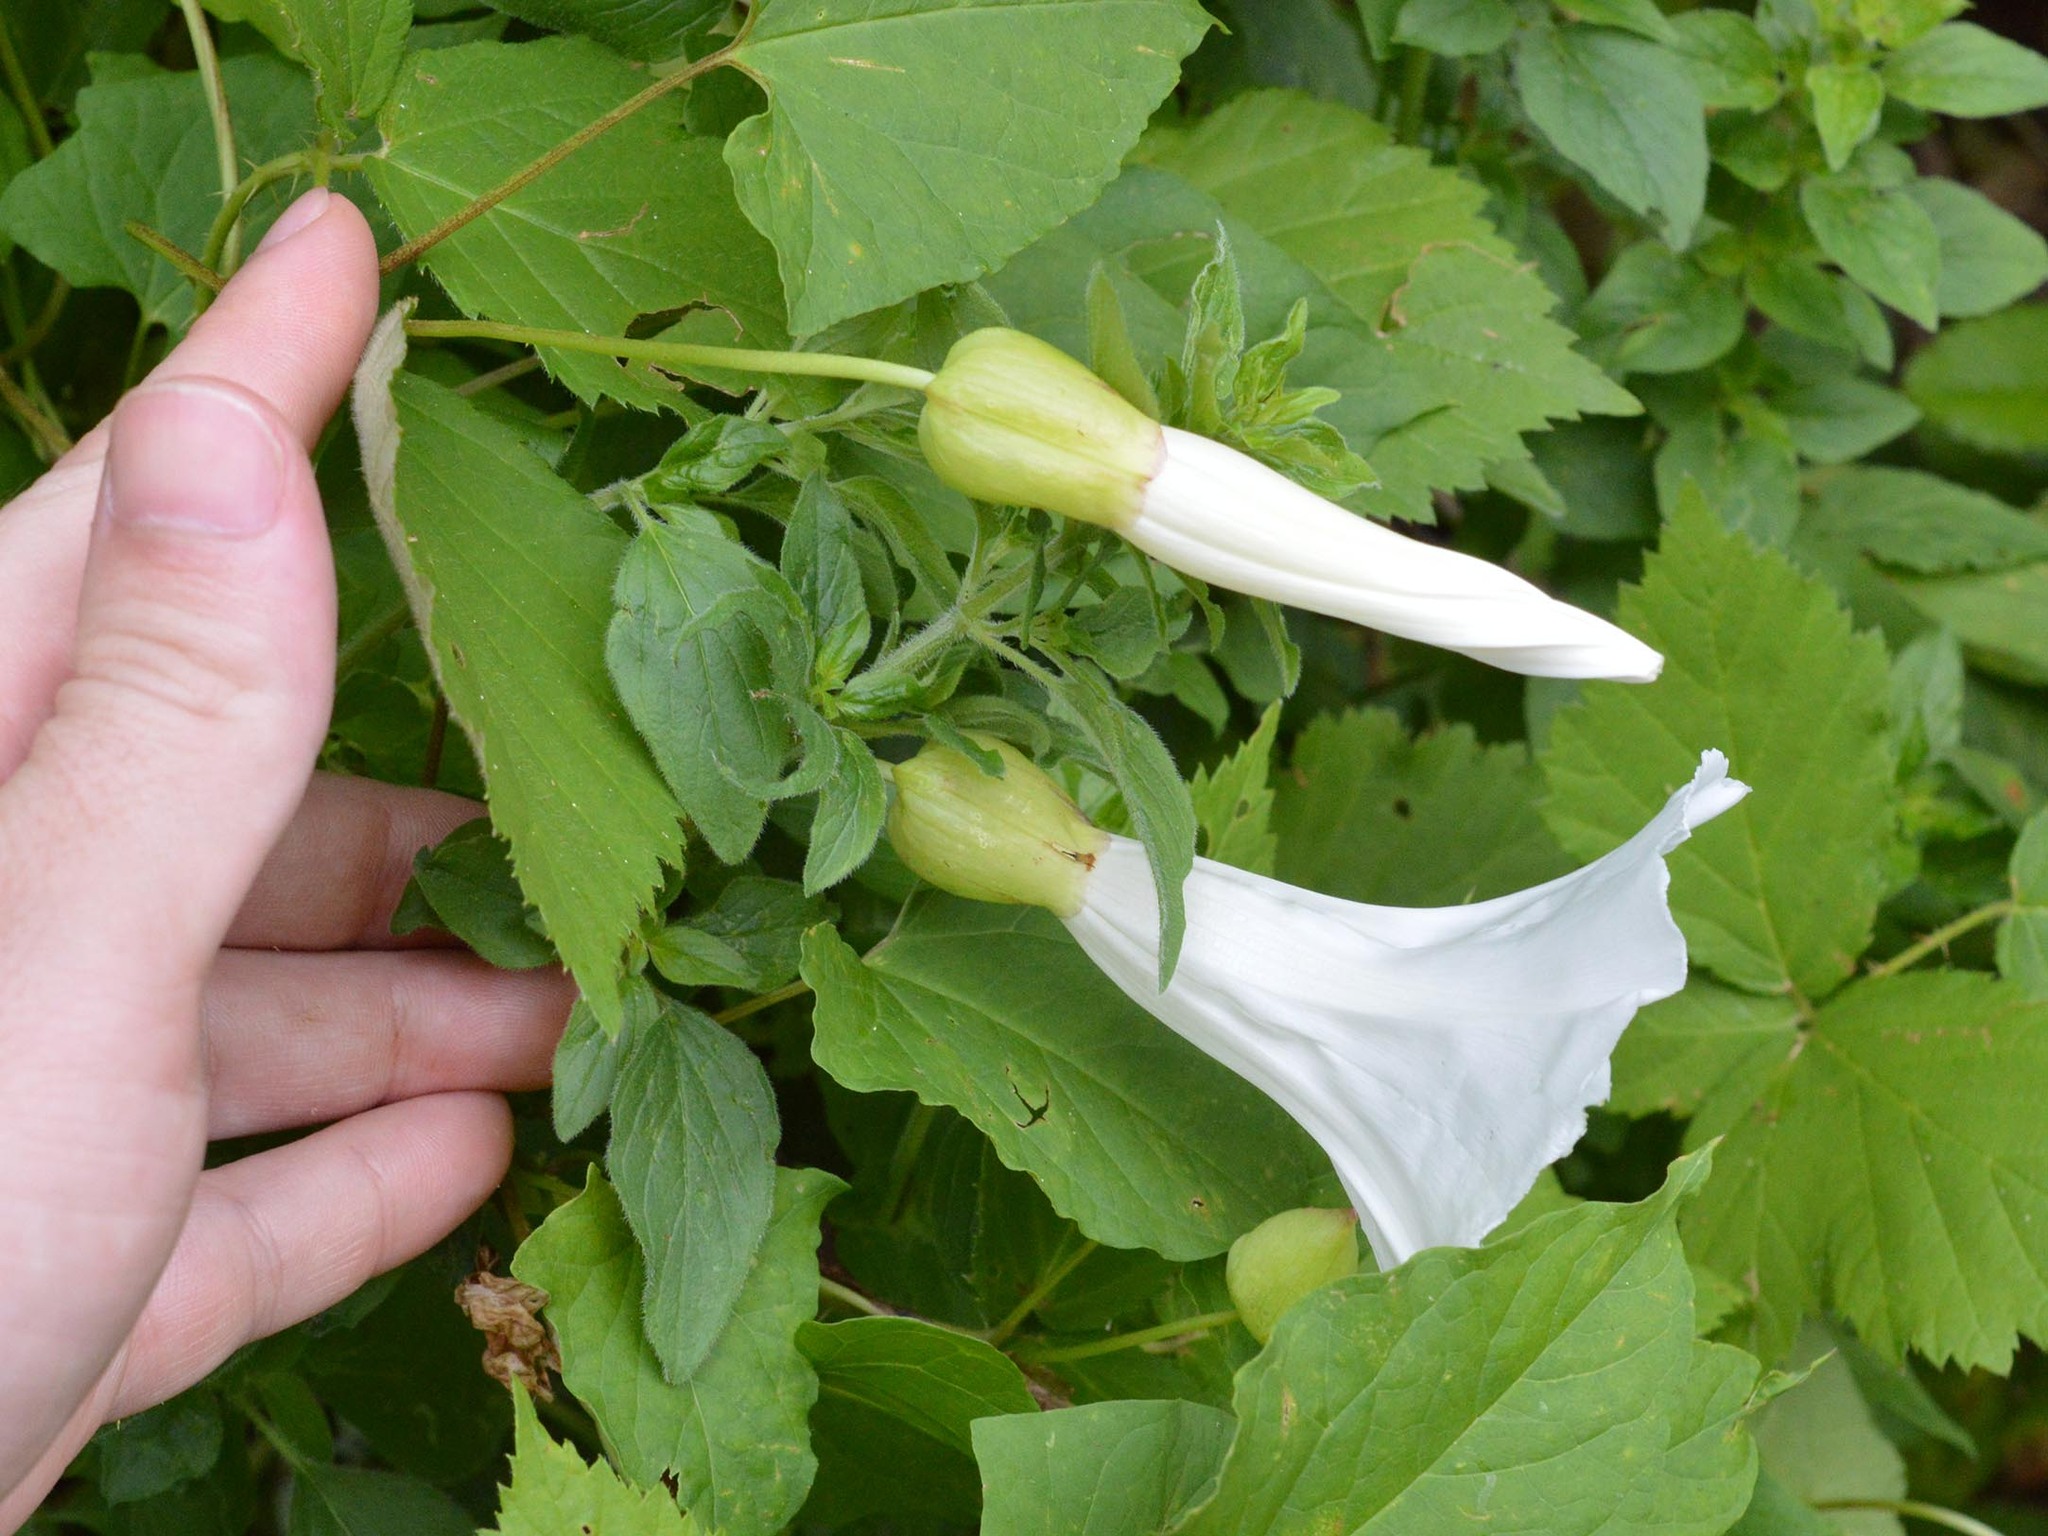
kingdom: Plantae
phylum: Tracheophyta
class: Magnoliopsida
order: Solanales
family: Convolvulaceae
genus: Calystegia
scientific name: Calystegia silvatica
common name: Large bindweed
